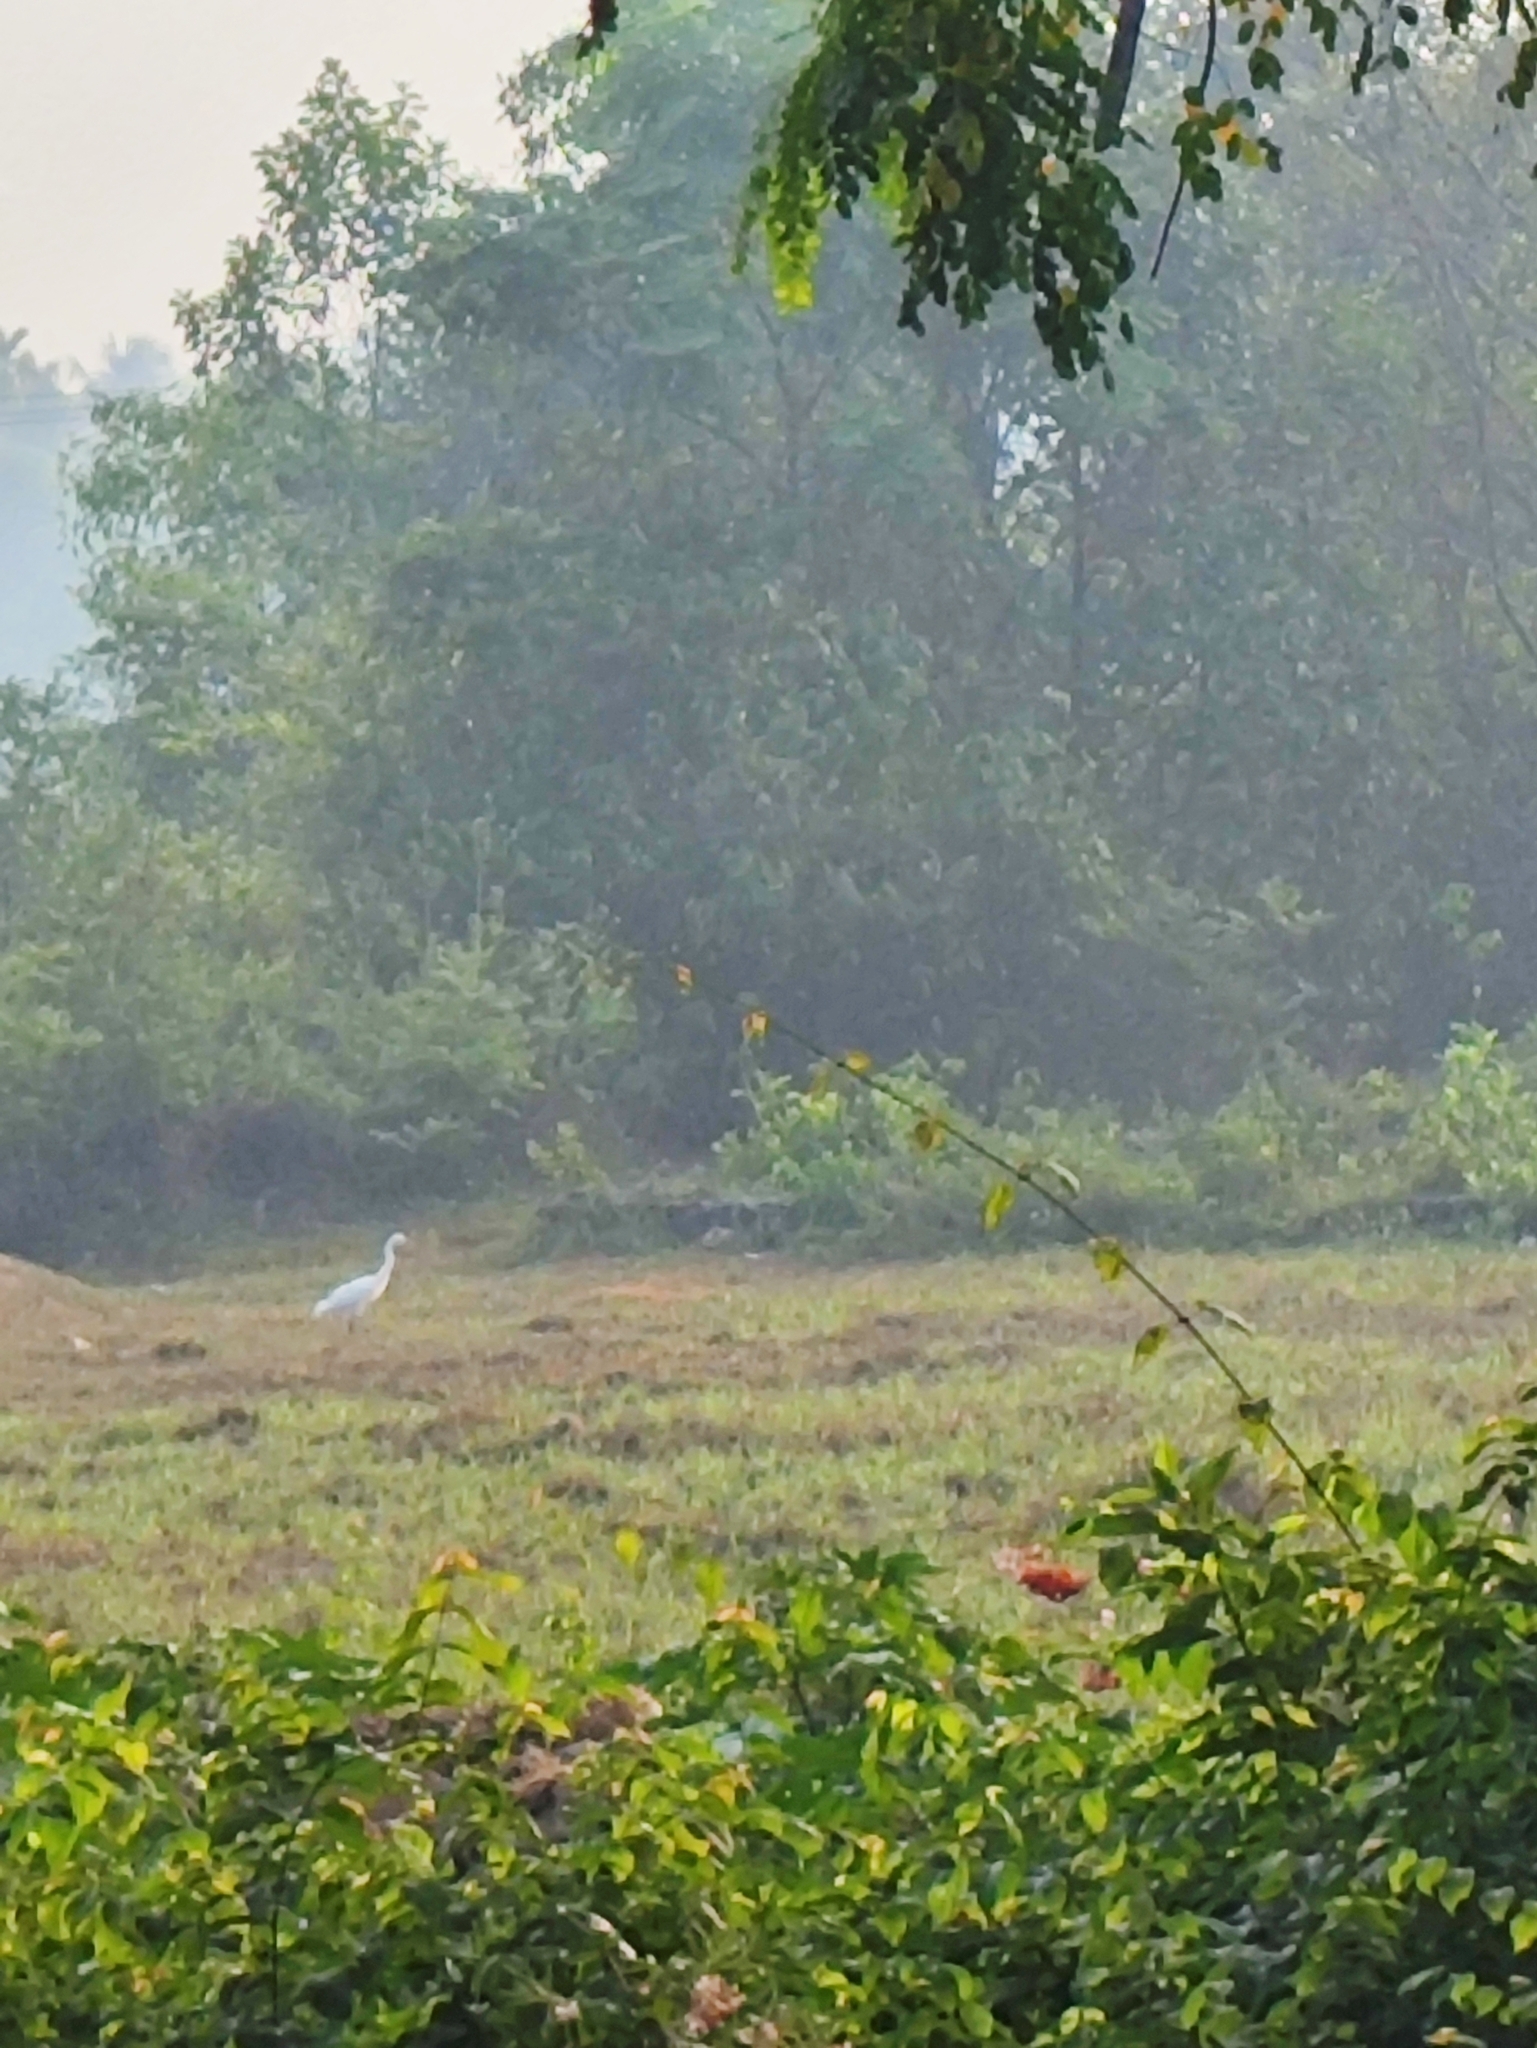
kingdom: Animalia
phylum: Chordata
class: Aves
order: Pelecaniformes
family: Ardeidae
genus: Bubulcus
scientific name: Bubulcus coromandus
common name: Eastern cattle egret
